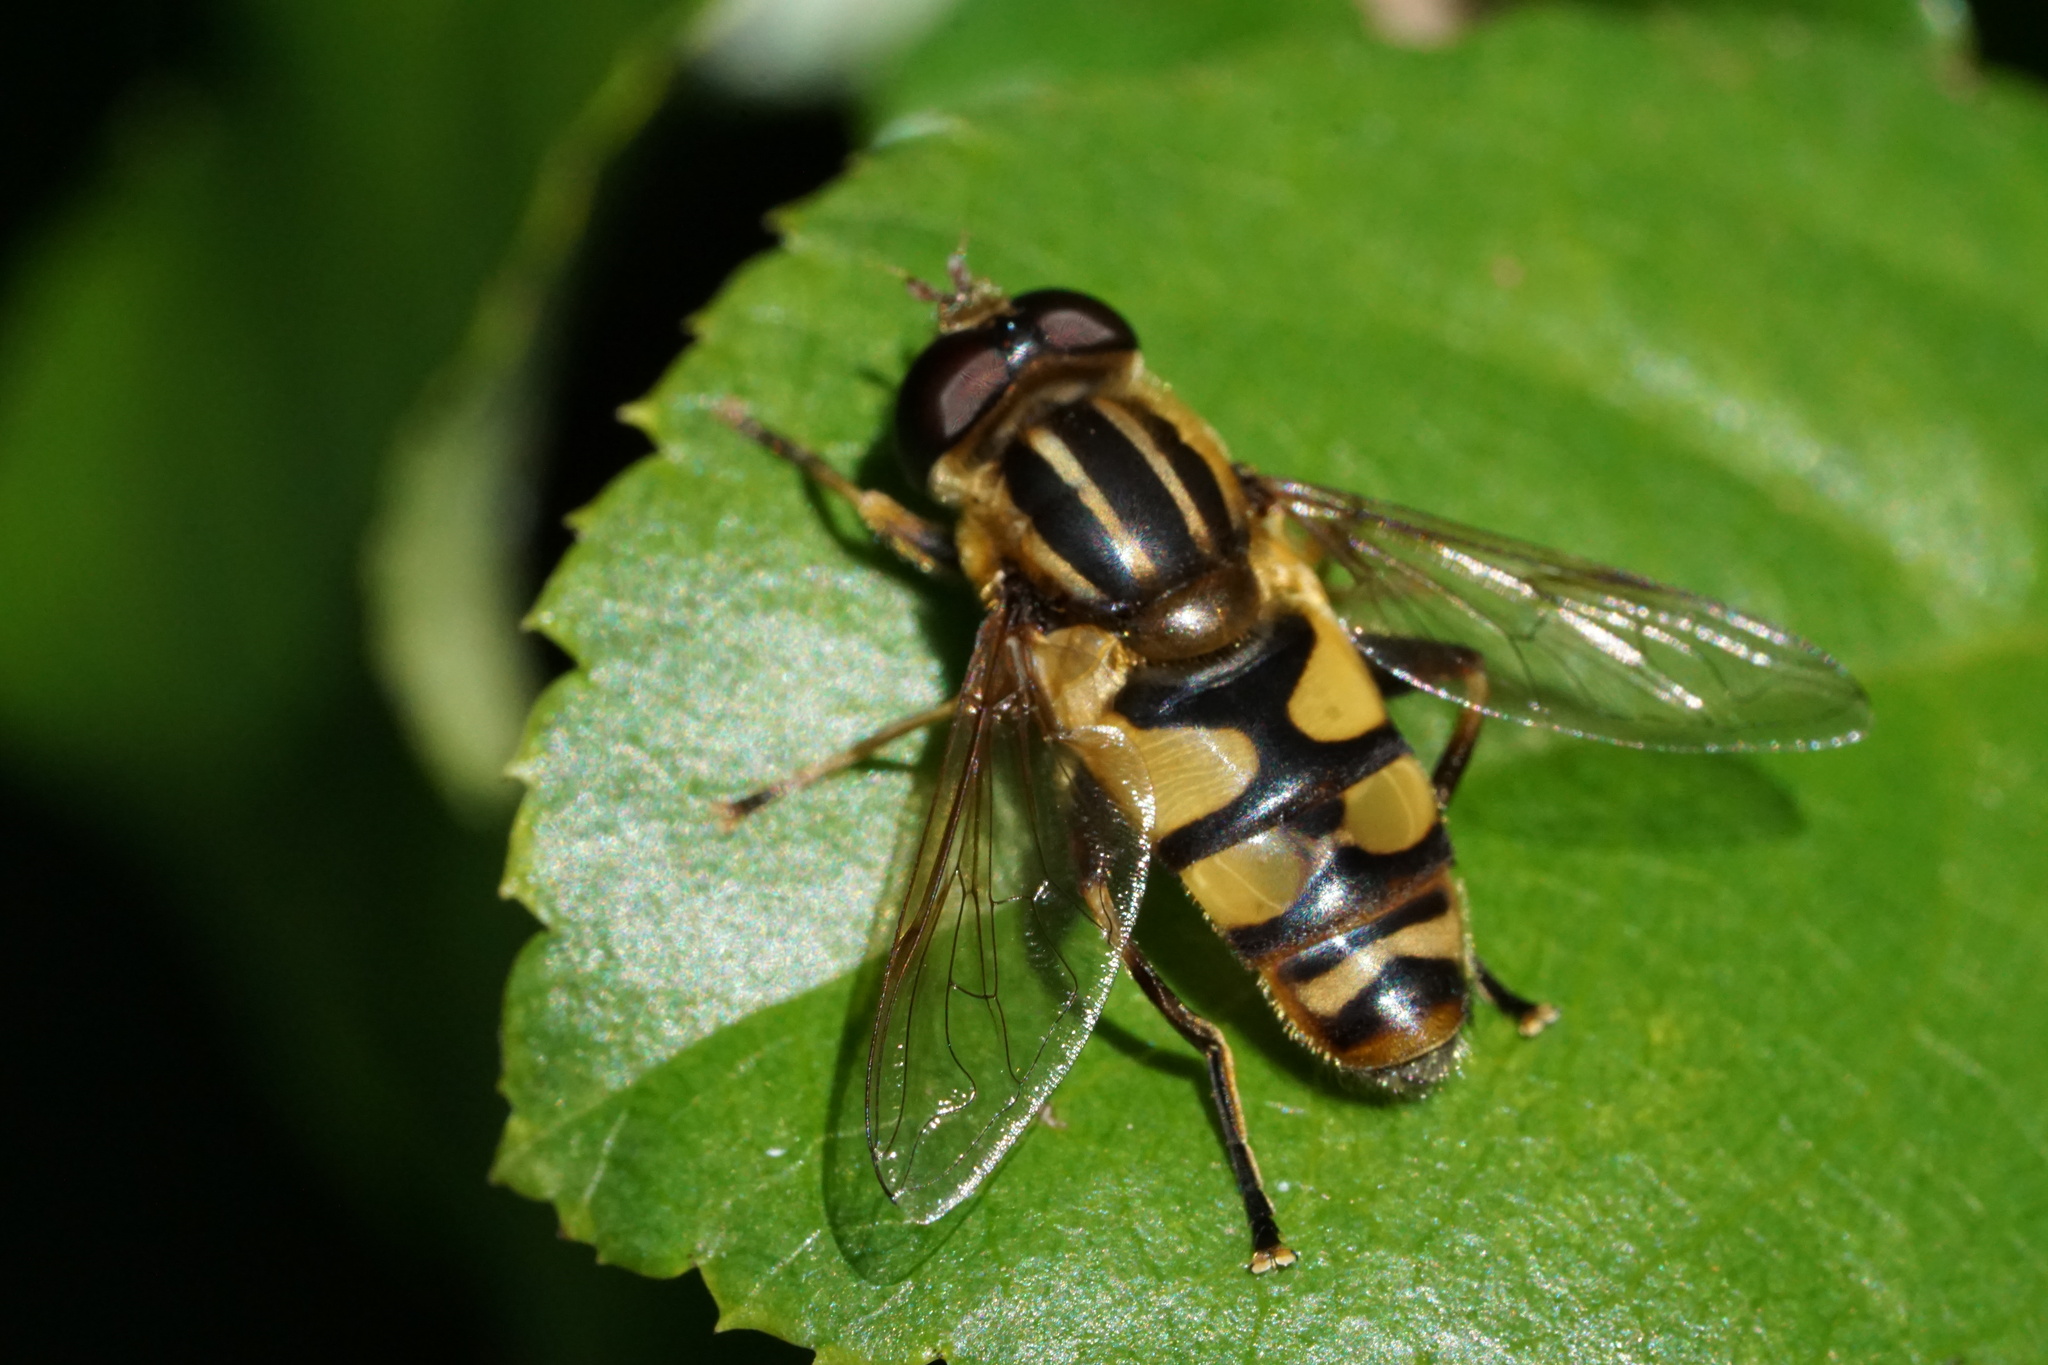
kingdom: Animalia
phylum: Arthropoda
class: Insecta
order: Diptera
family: Syrphidae
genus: Helophilus
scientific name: Helophilus fasciatus
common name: Narrow-headed marsh fly
